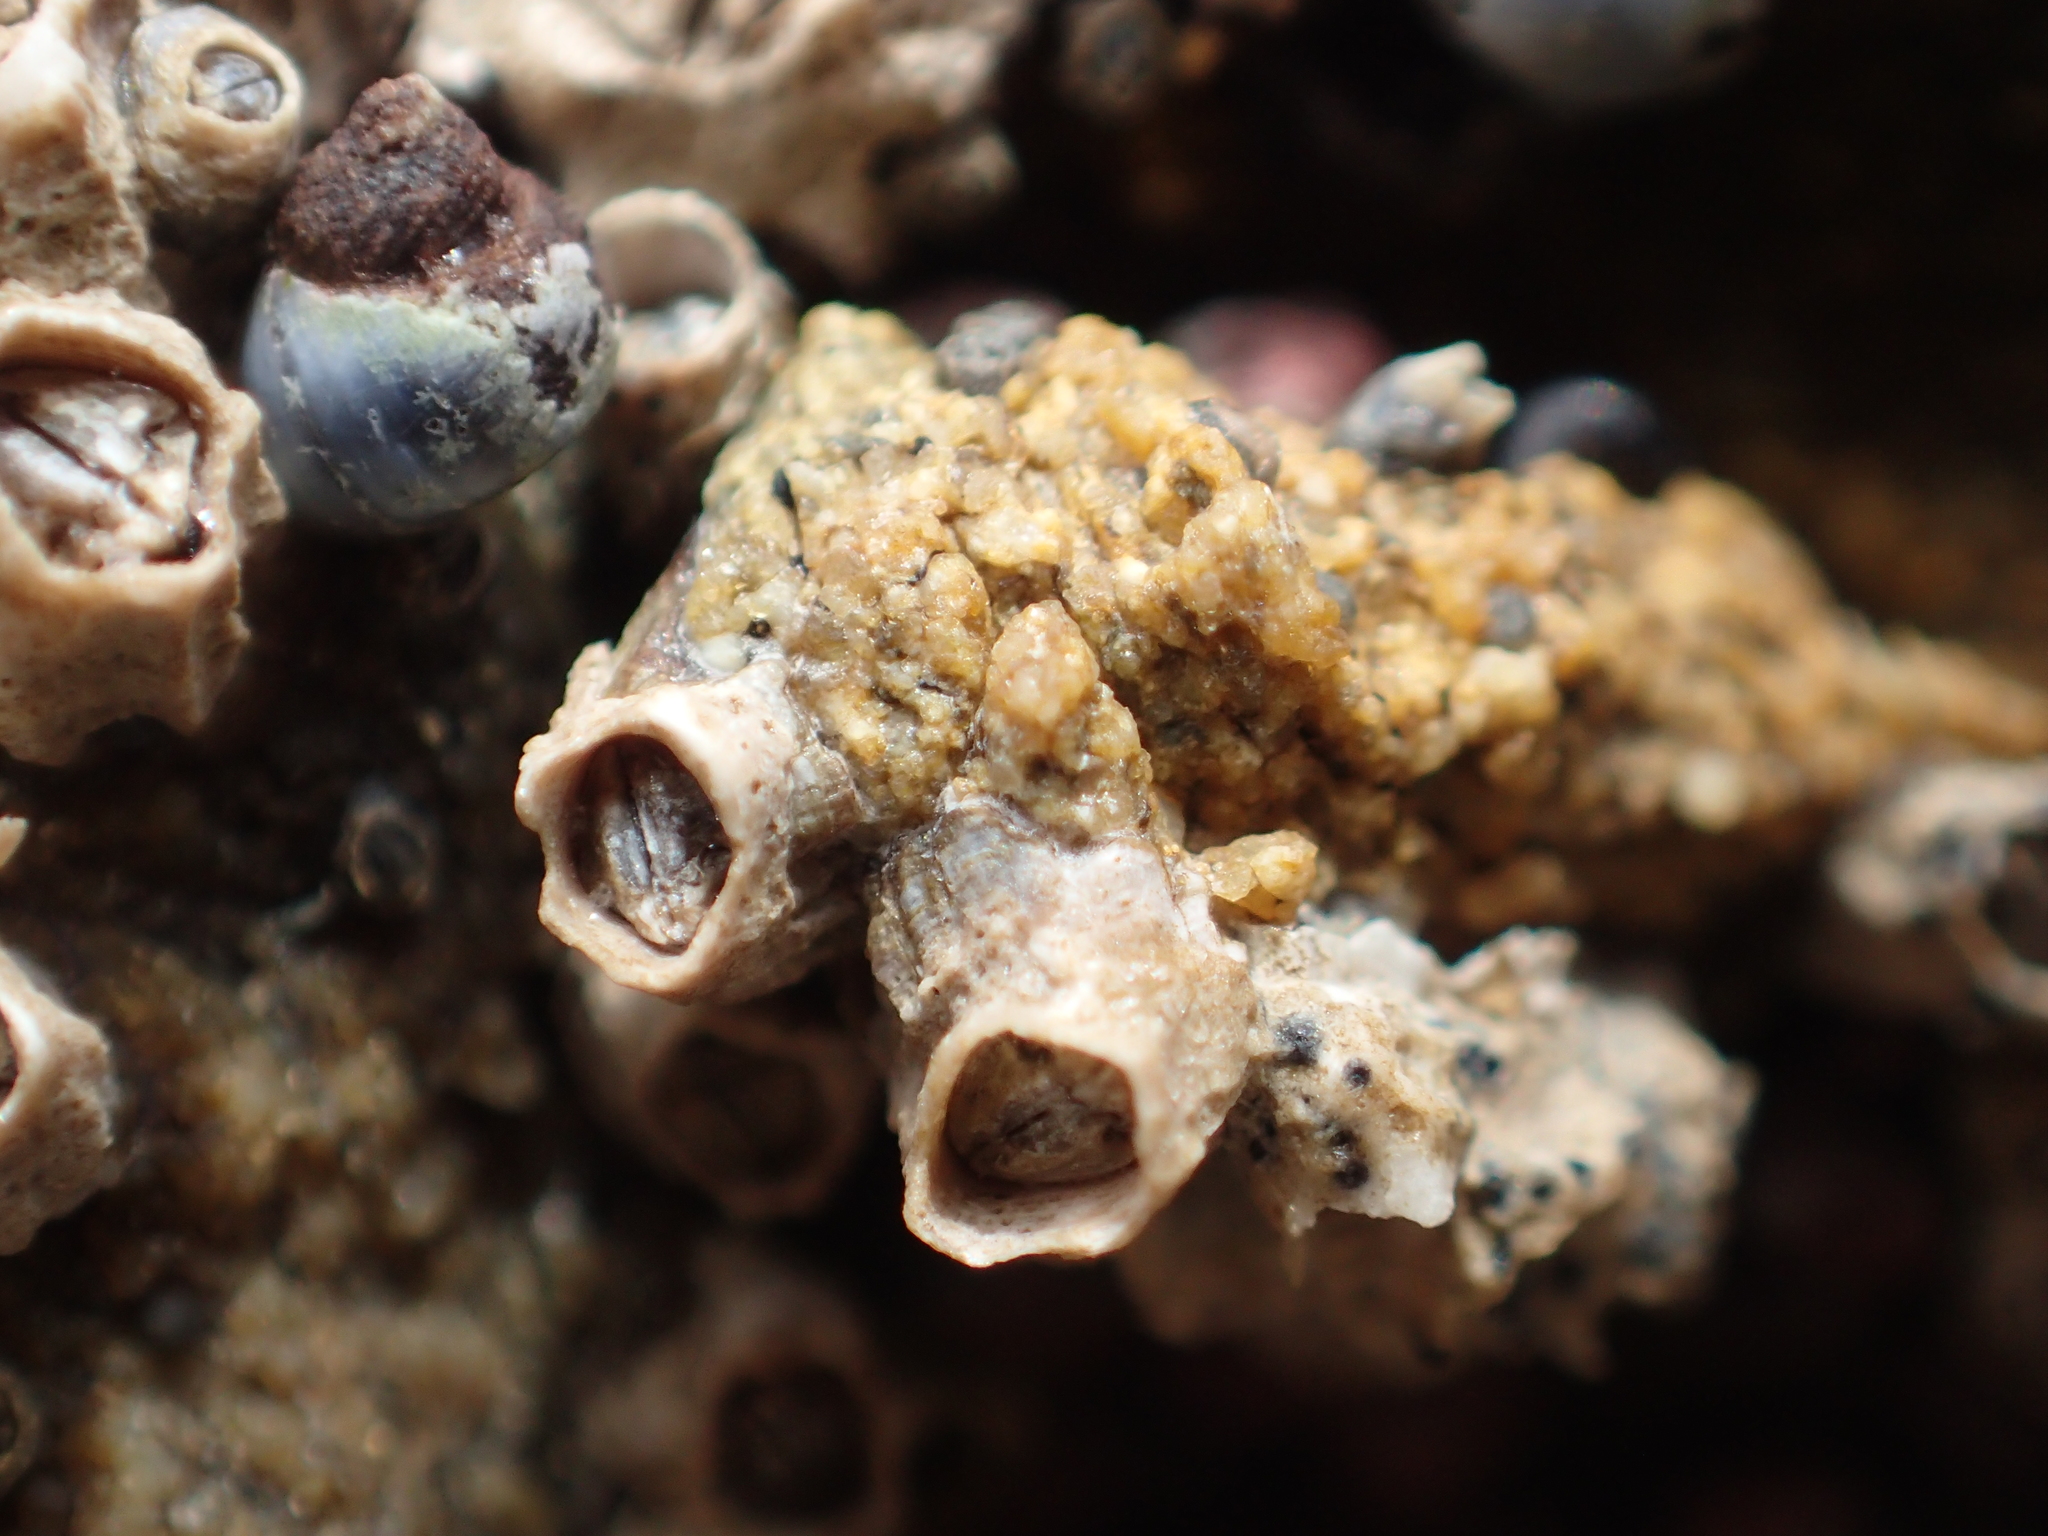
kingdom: Animalia
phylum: Arthropoda
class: Maxillopoda
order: Sessilia
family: Chthamalidae
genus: Chamaesipho
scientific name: Chamaesipho columna
